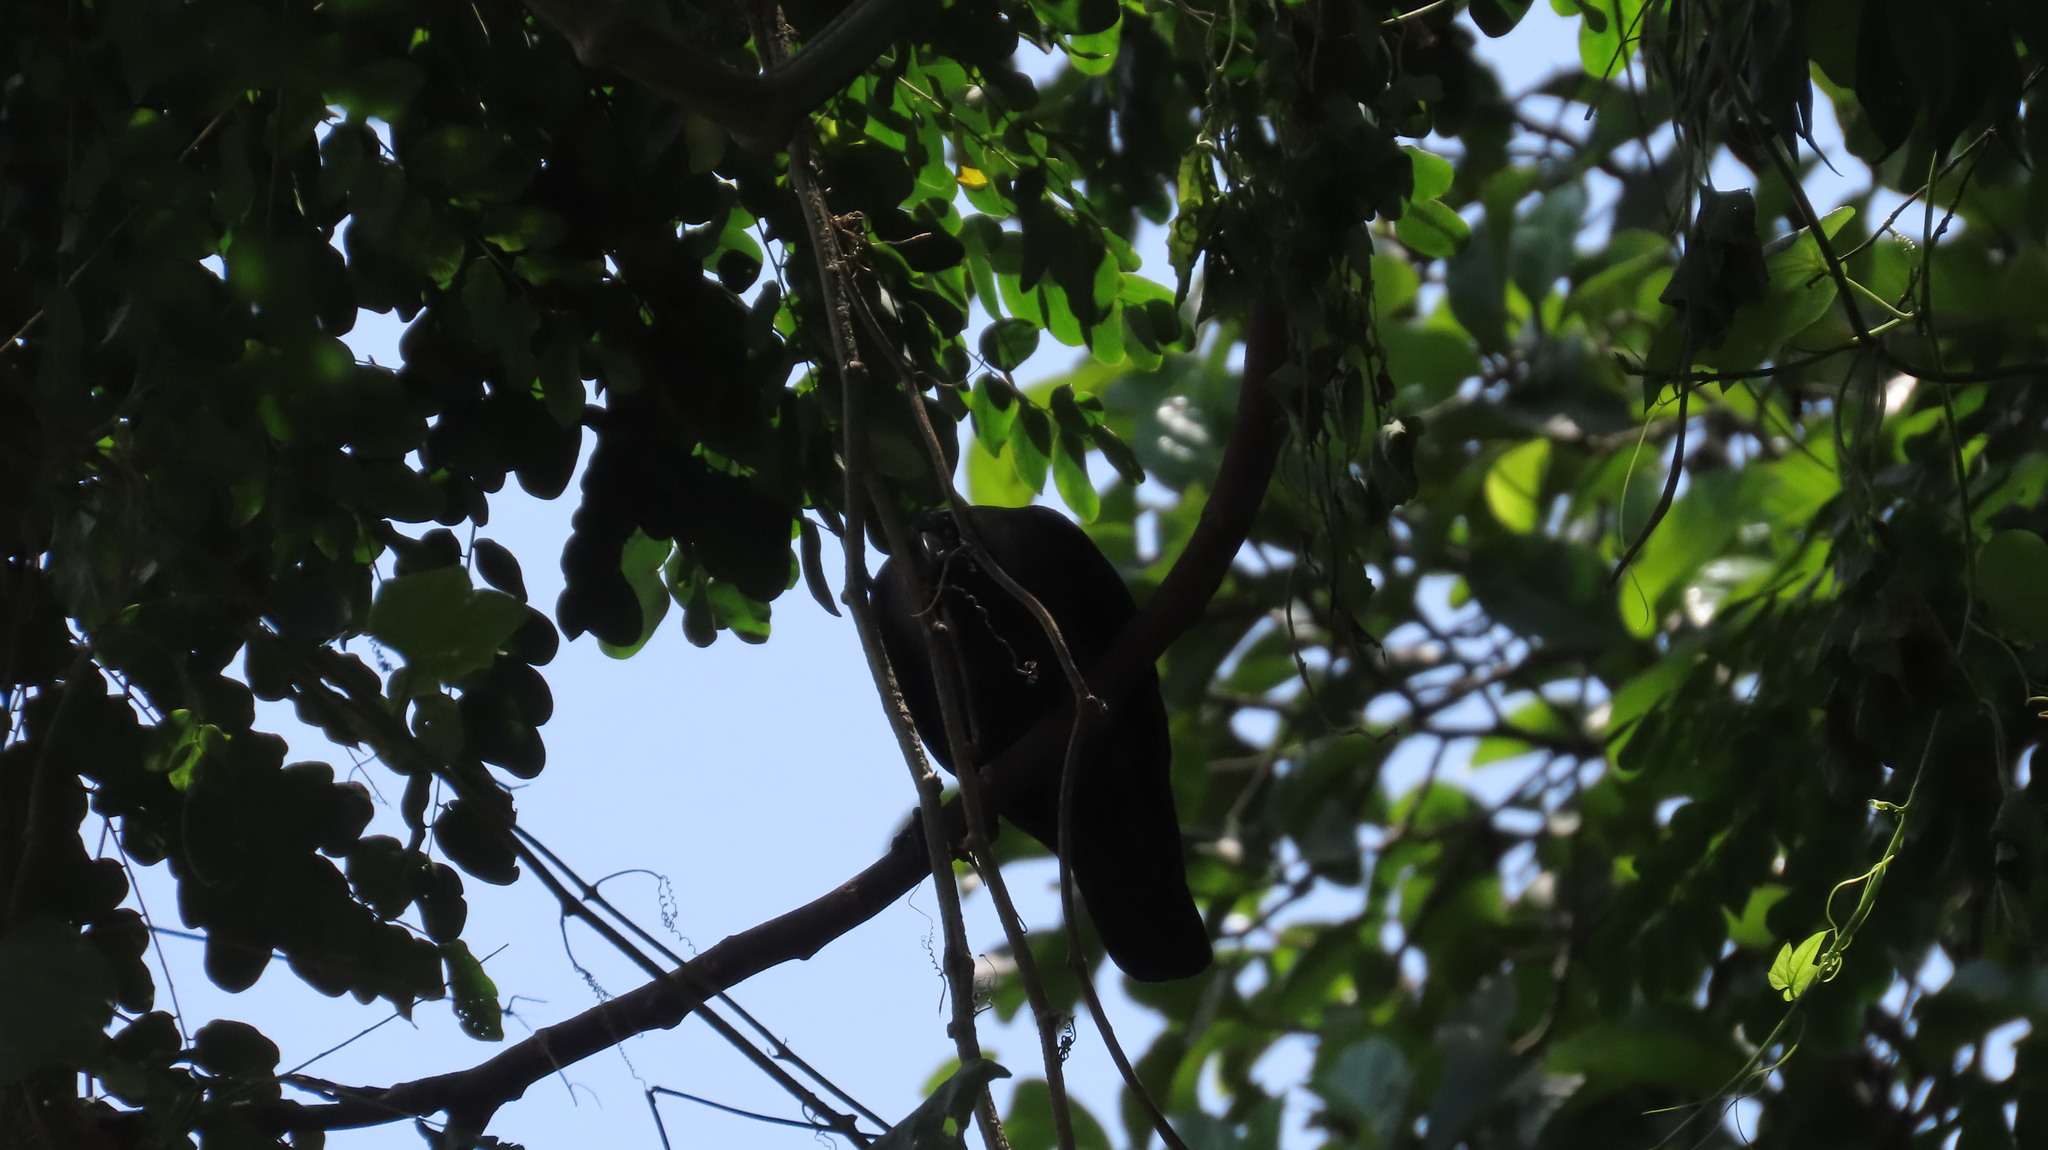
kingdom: Animalia
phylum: Chordata
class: Aves
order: Passeriformes
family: Corvidae
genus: Corvus
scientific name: Corvus splendens
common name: House crow
